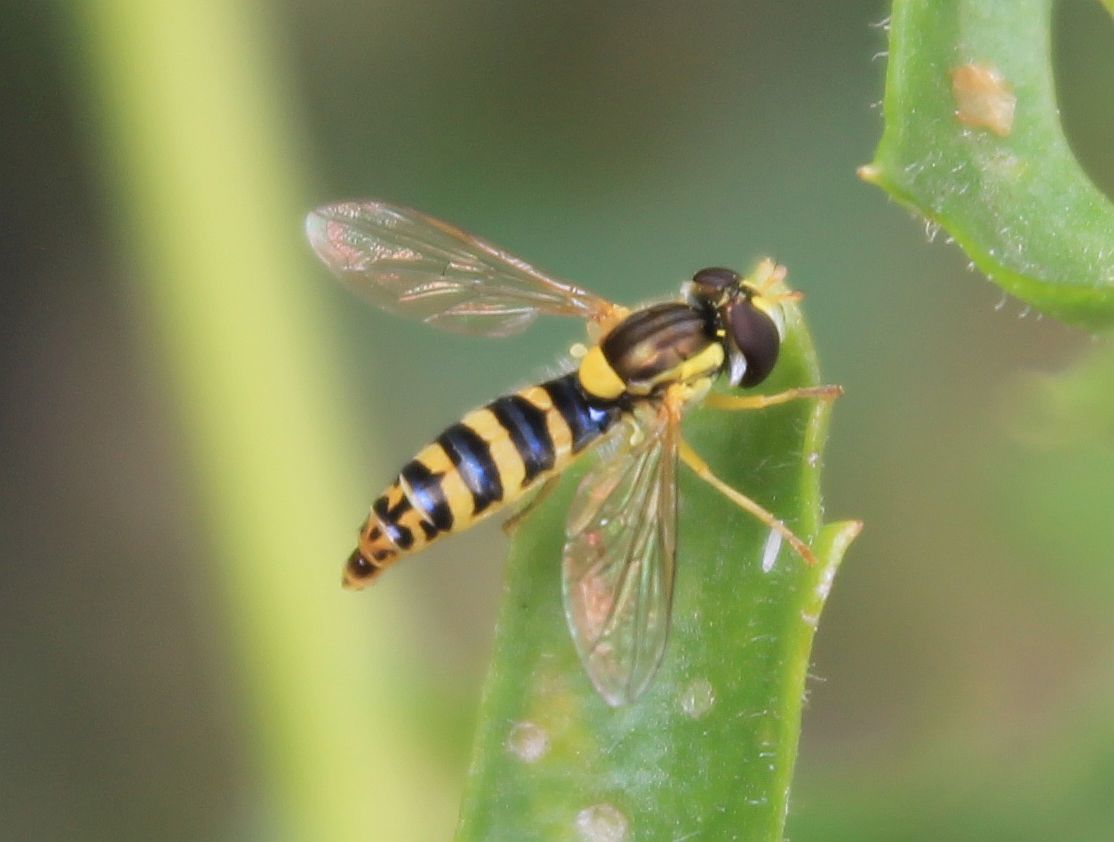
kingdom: Animalia
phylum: Arthropoda
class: Insecta
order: Diptera
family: Syrphidae
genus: Sphaerophoria
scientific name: Sphaerophoria
